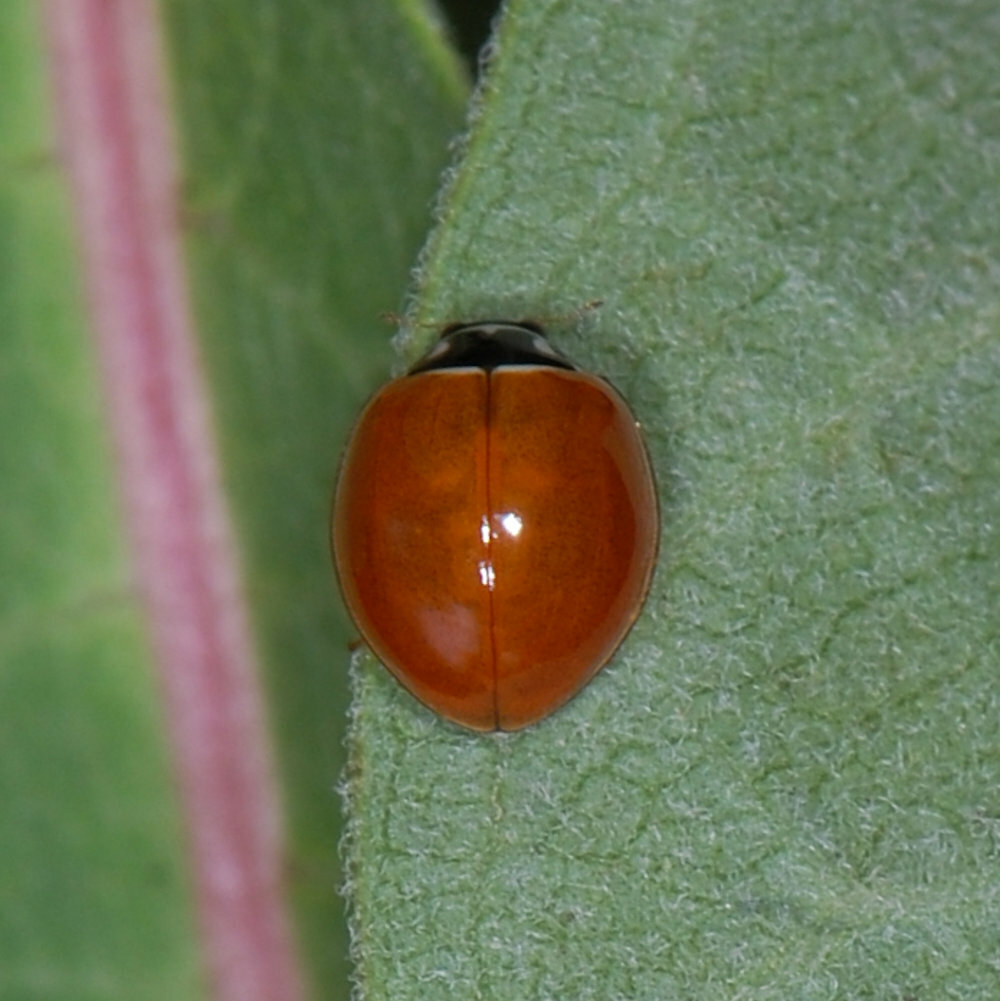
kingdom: Animalia
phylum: Arthropoda
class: Insecta
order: Coleoptera
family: Coccinellidae
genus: Cycloneda
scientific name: Cycloneda munda
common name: Polished lady beetle
